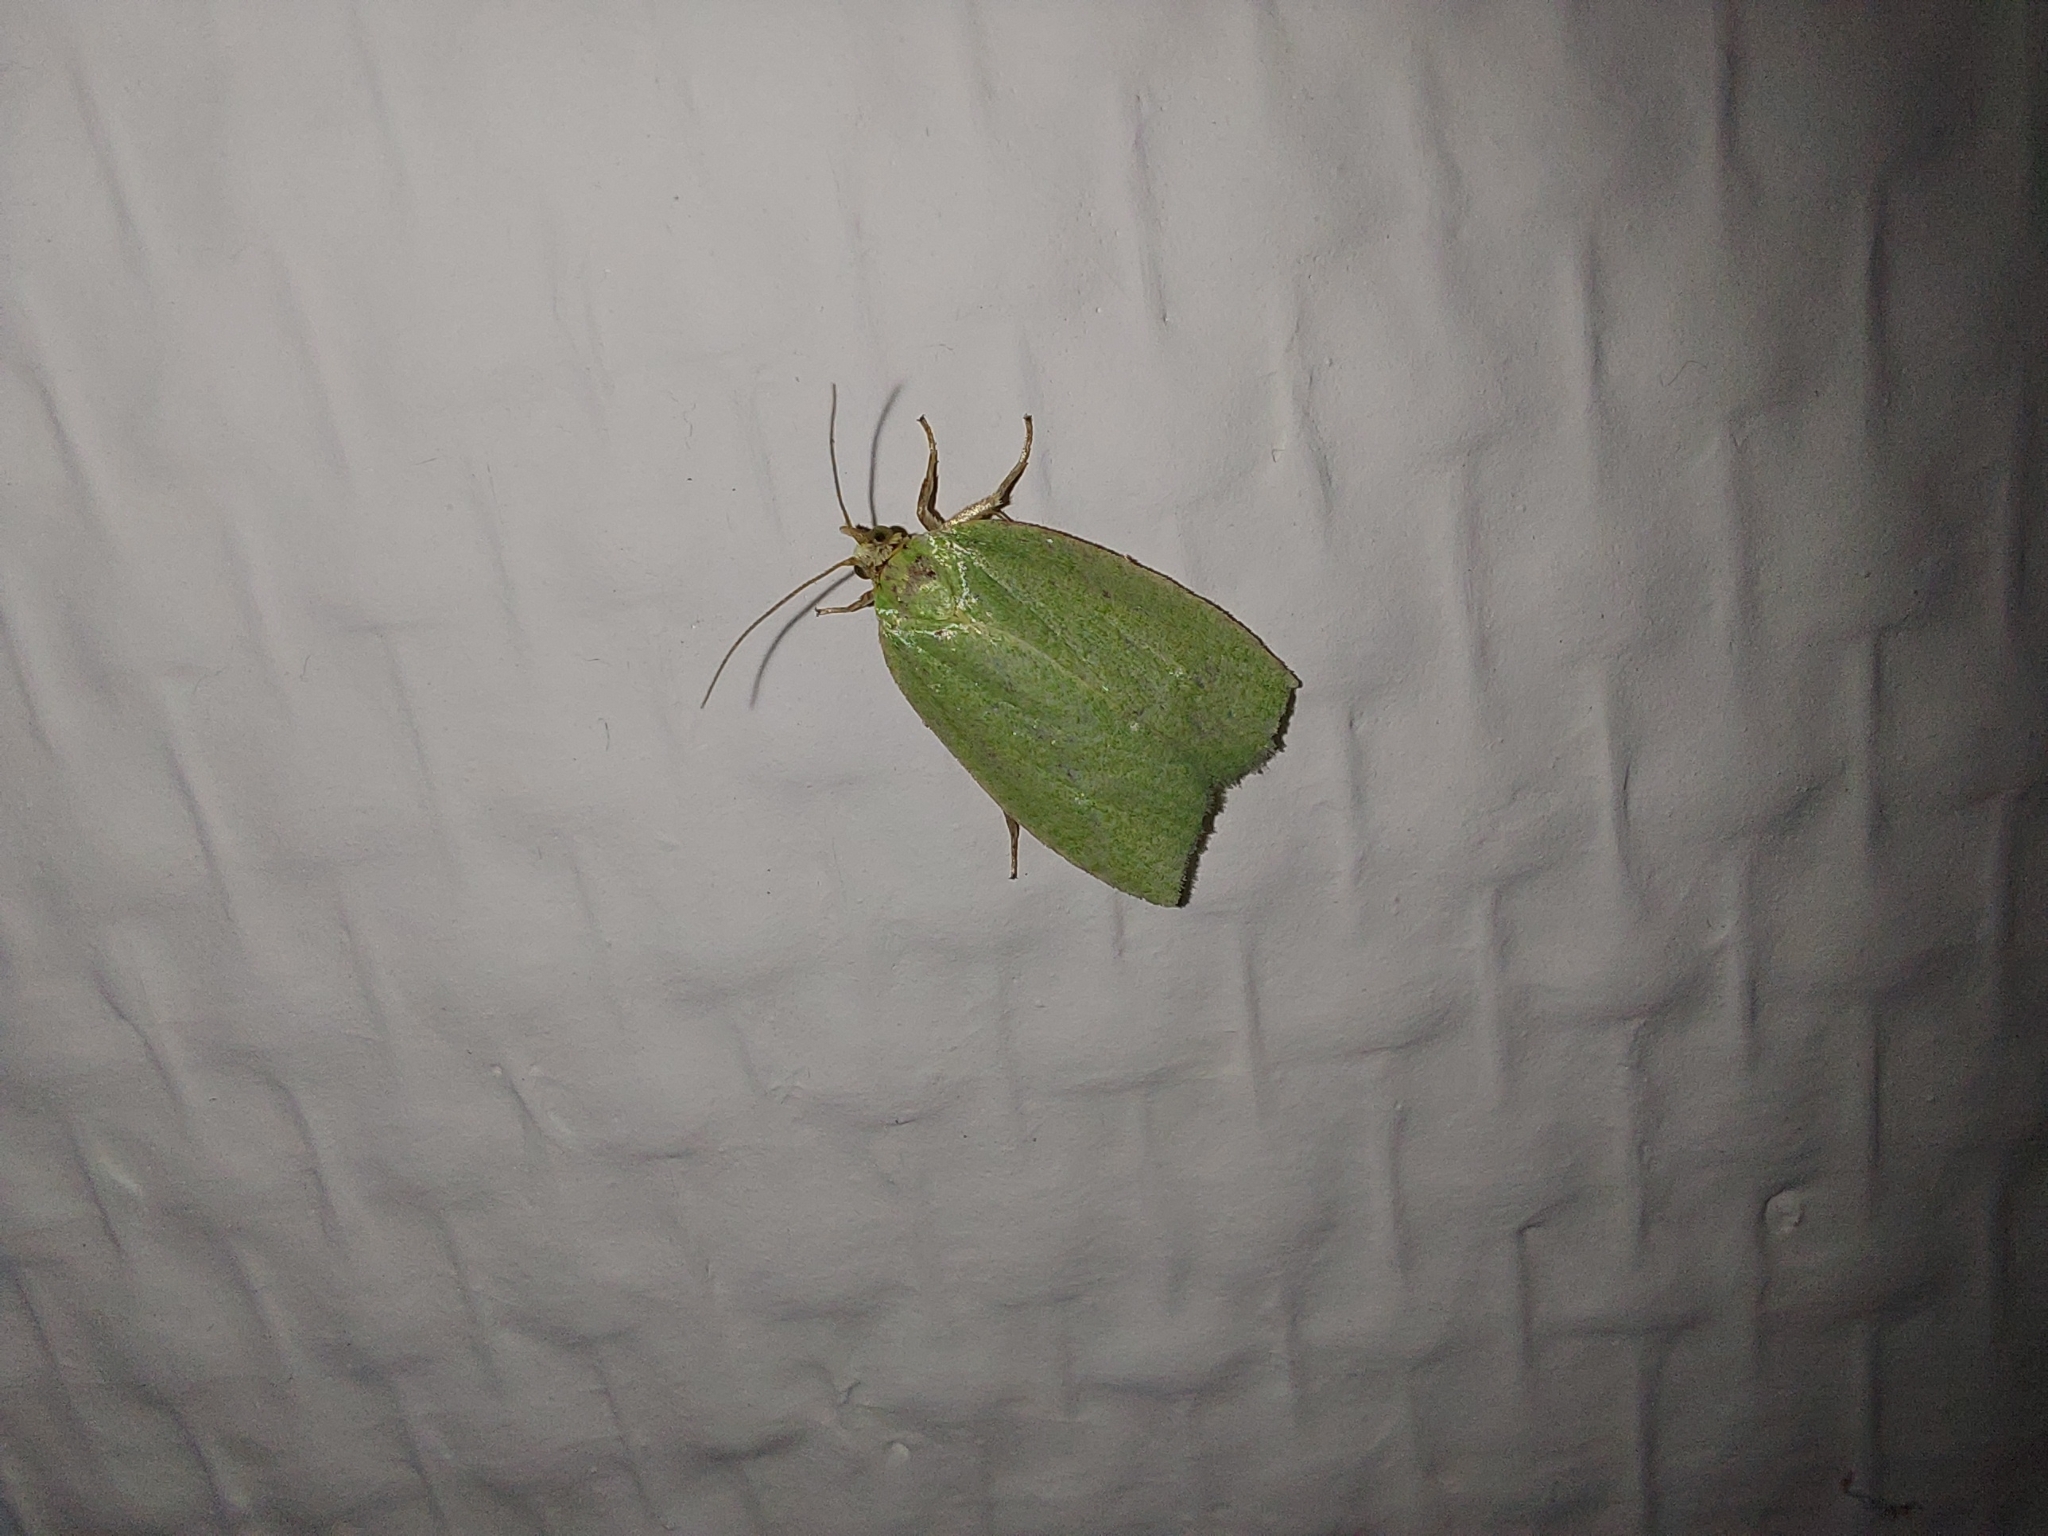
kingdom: Animalia
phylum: Arthropoda
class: Insecta
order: Lepidoptera
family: Tortricidae
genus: Tortrix
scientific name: Tortrix viridana
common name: Green oak tortrix
